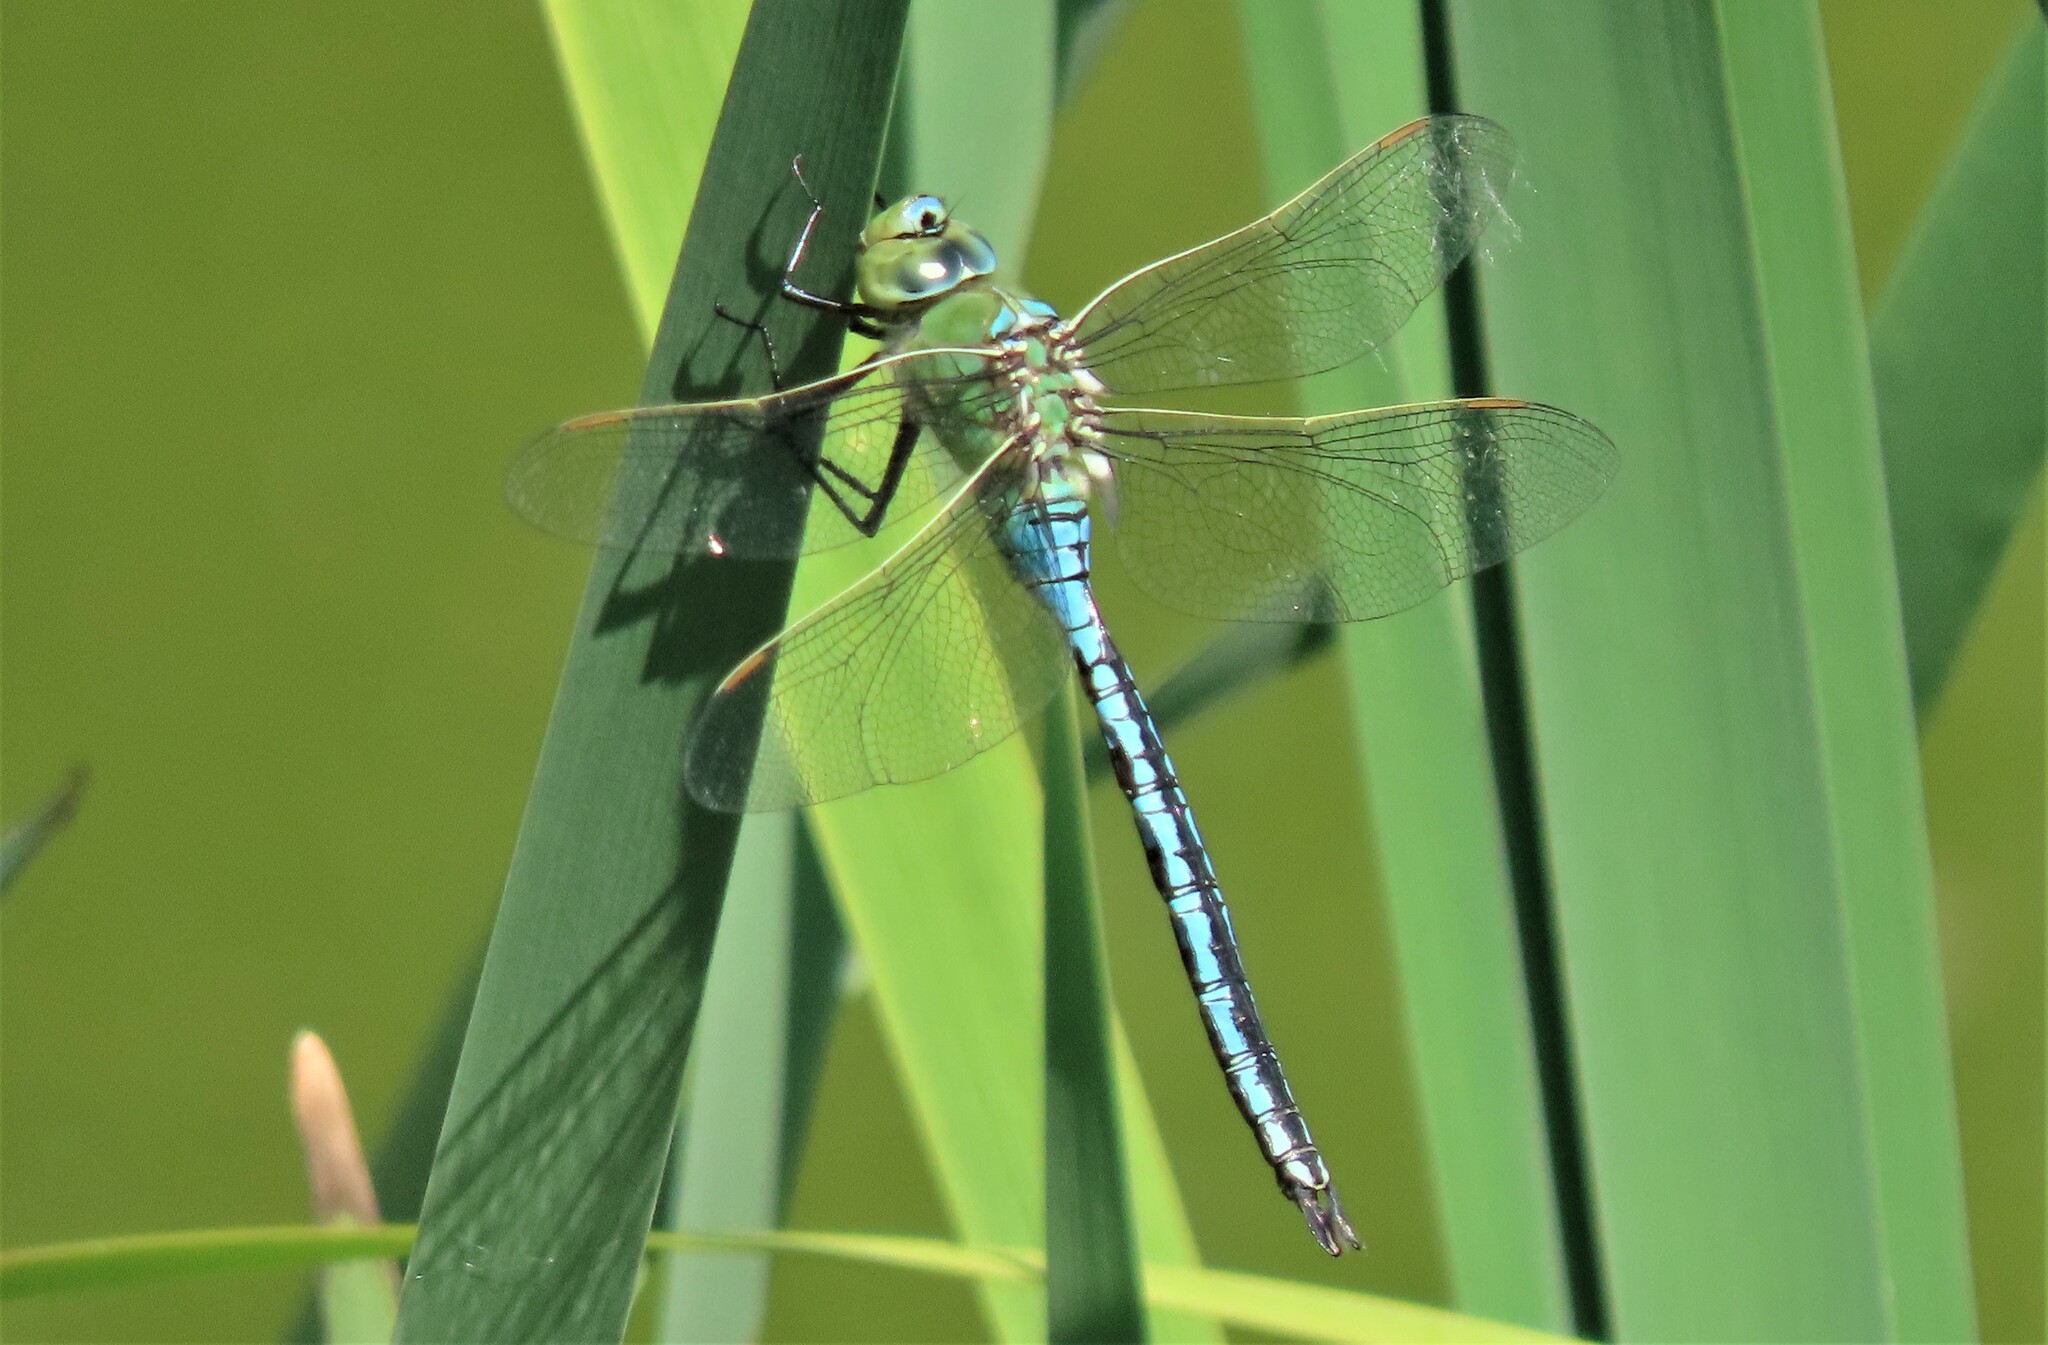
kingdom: Animalia
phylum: Arthropoda
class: Insecta
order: Odonata
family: Aeshnidae
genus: Anax
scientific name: Anax imperator
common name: Emperor dragonfly
